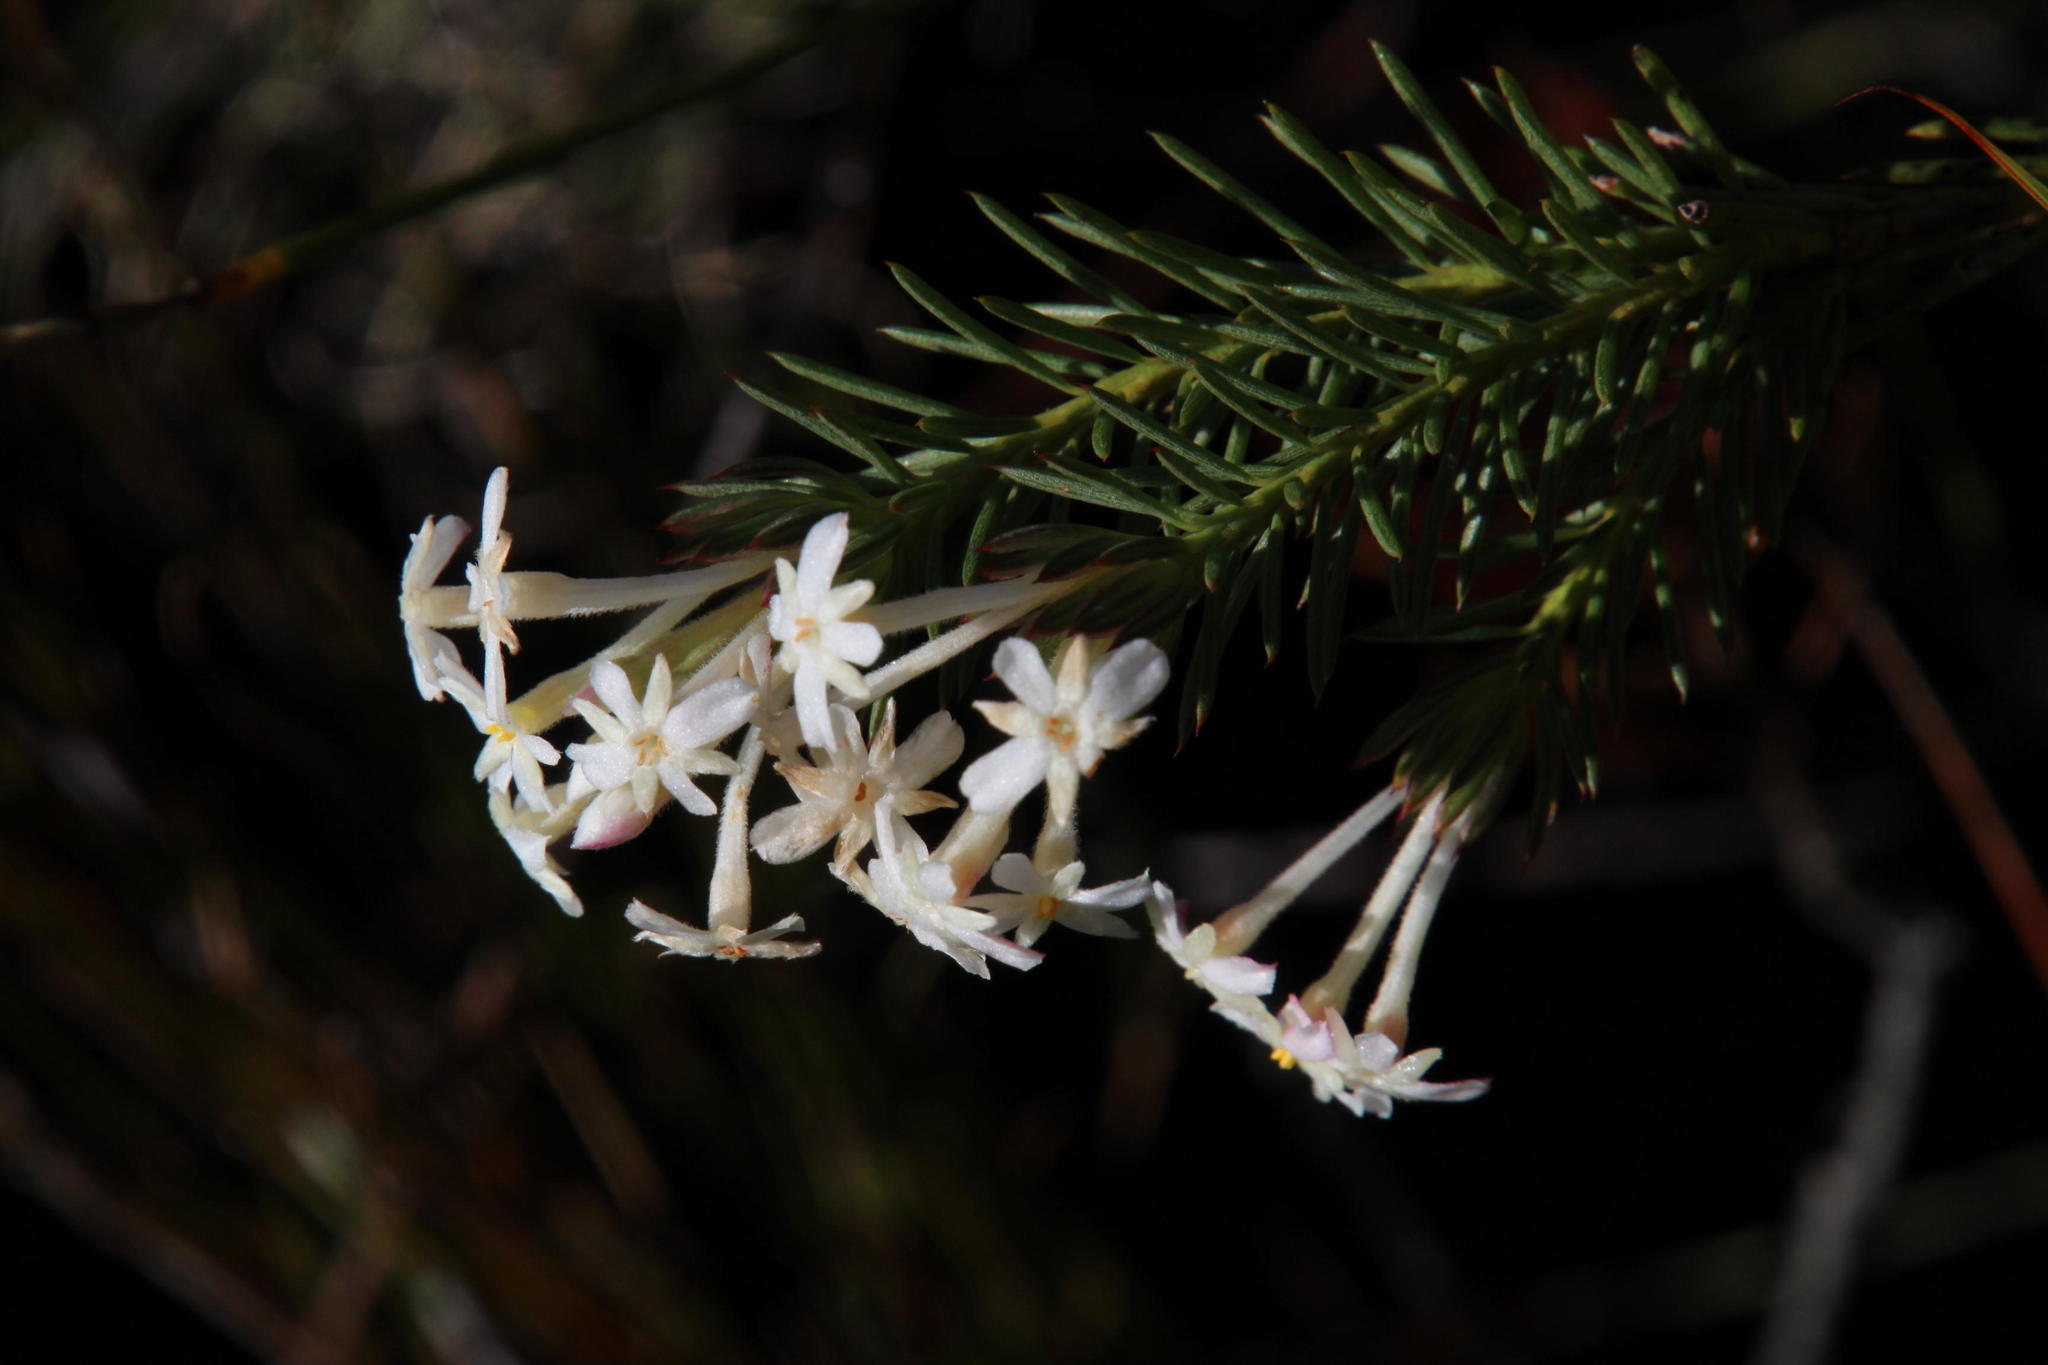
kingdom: Plantae
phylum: Tracheophyta
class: Magnoliopsida
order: Malvales
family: Thymelaeaceae
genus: Gnidia
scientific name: Gnidia pinifolia
